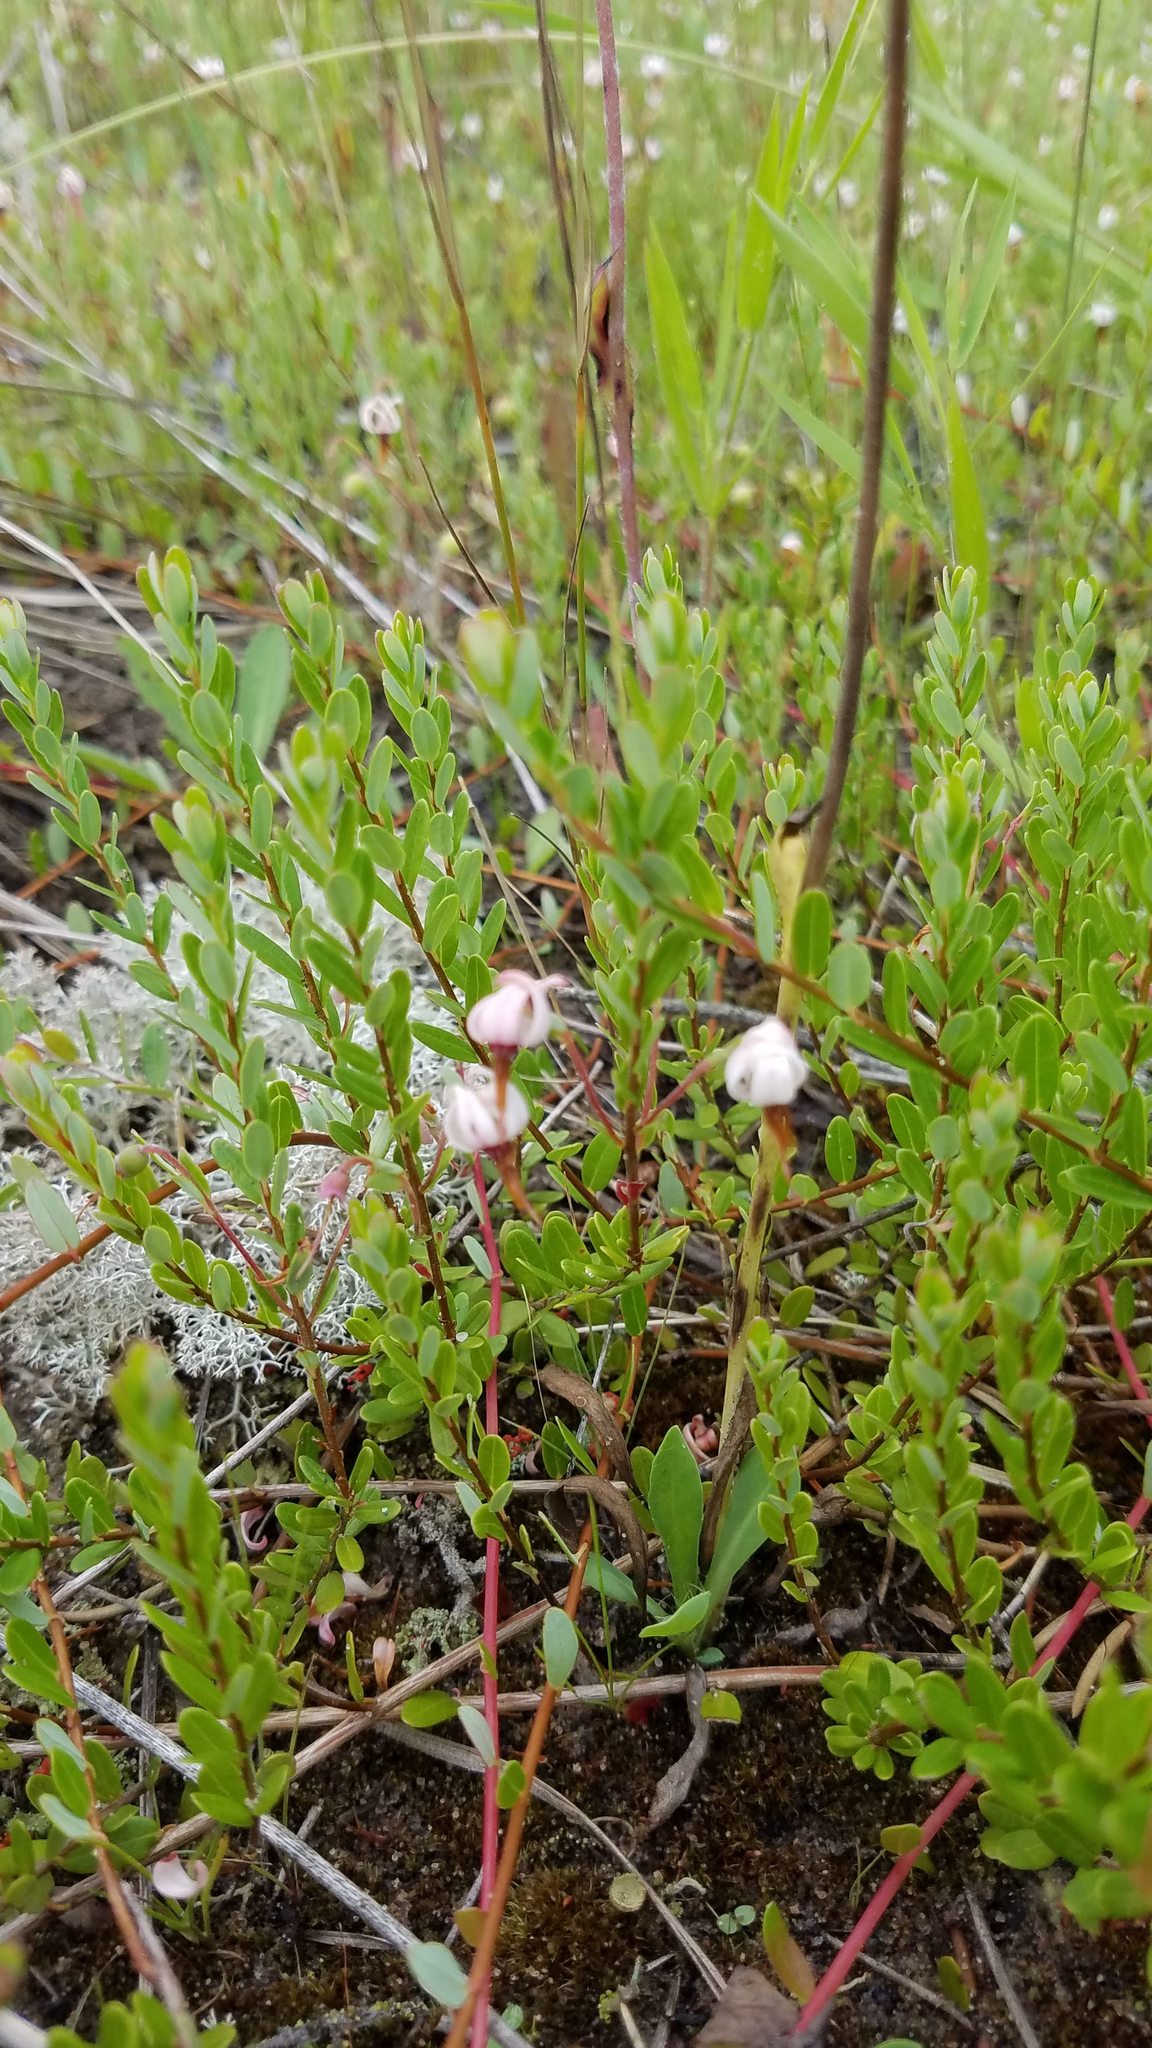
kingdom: Plantae
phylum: Tracheophyta
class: Magnoliopsida
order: Ericales
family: Ericaceae
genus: Vaccinium
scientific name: Vaccinium macrocarpon
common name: American cranberry
